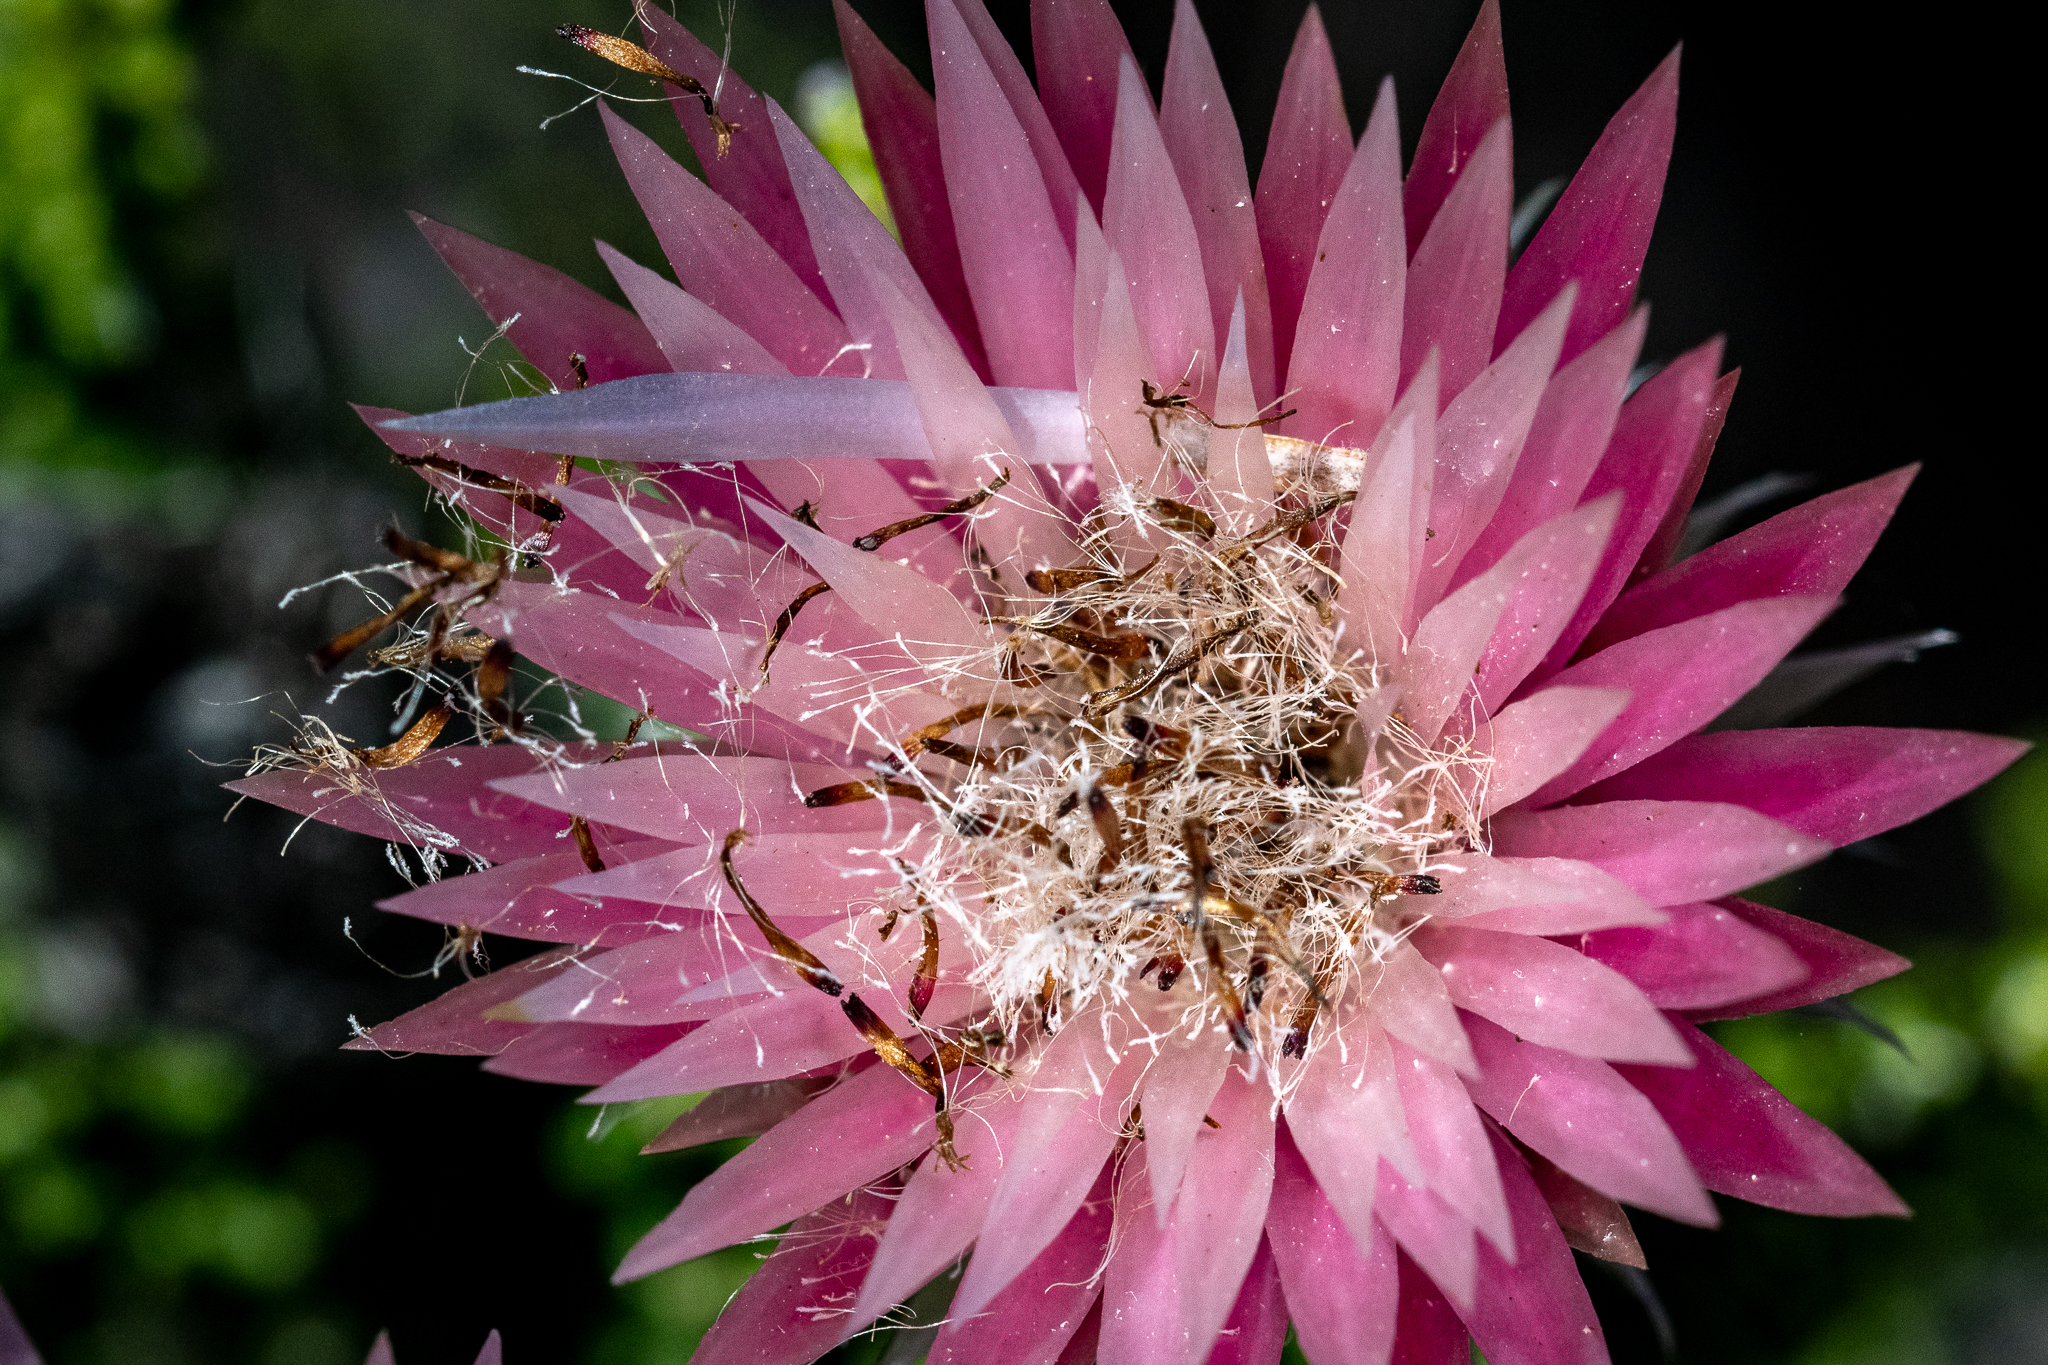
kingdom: Plantae
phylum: Tracheophyta
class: Magnoliopsida
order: Asterales
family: Asteraceae
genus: Phaenocoma
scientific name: Phaenocoma prolifera
